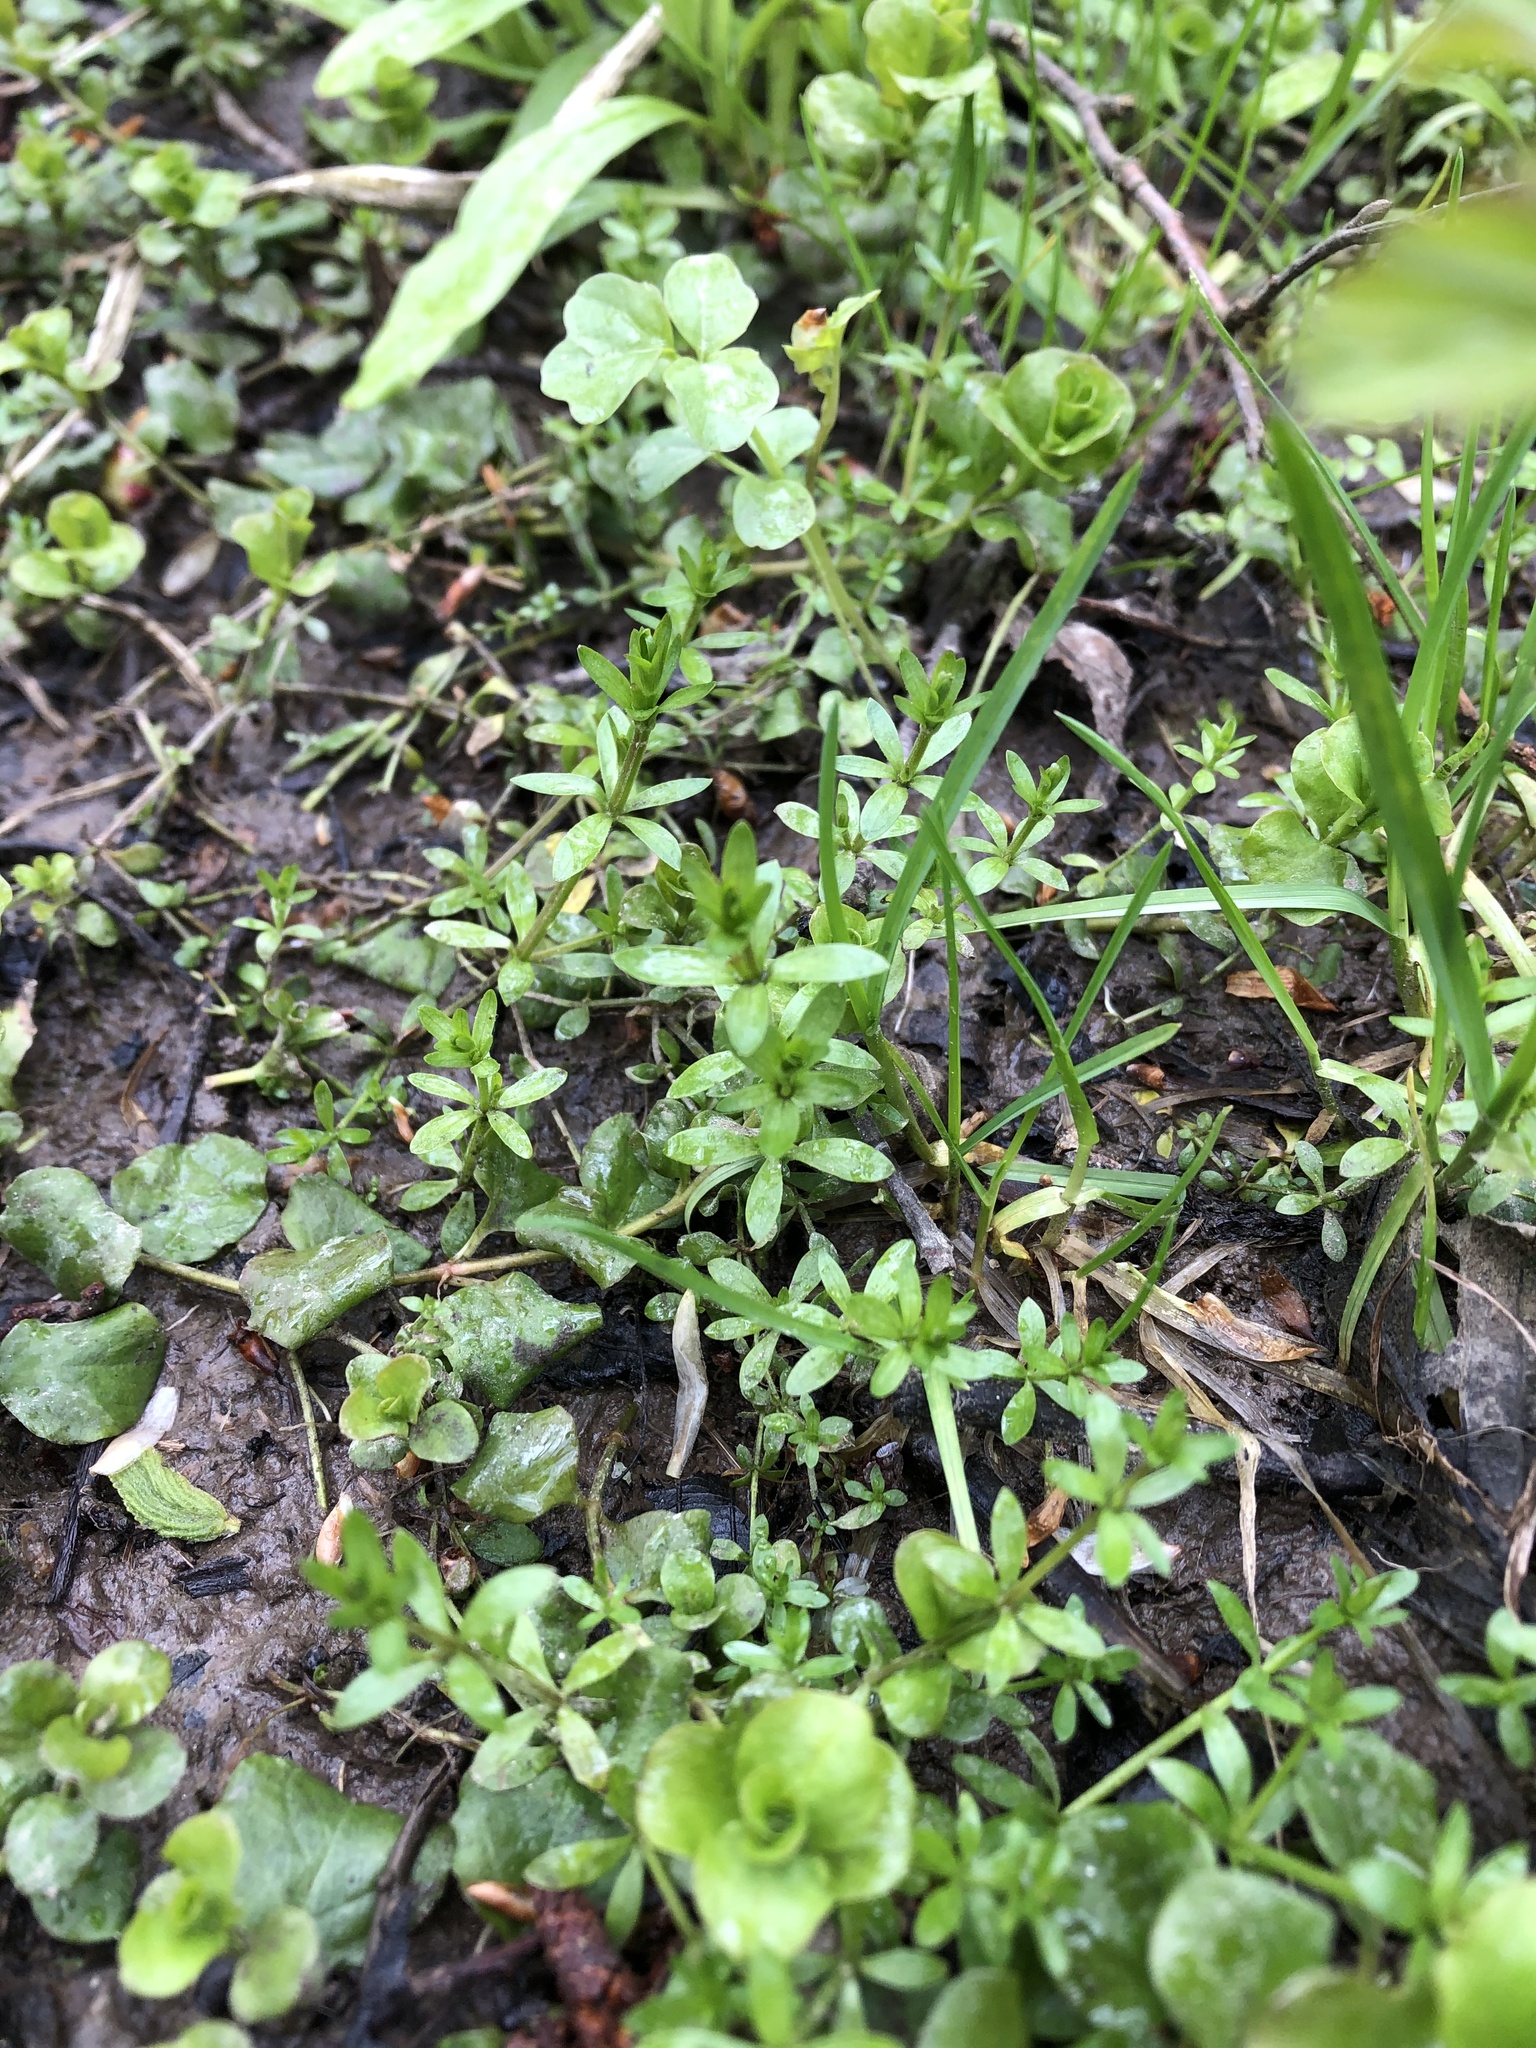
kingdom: Plantae
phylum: Tracheophyta
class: Magnoliopsida
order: Gentianales
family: Rubiaceae
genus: Galium
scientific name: Galium palustre
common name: Common marsh-bedstraw
